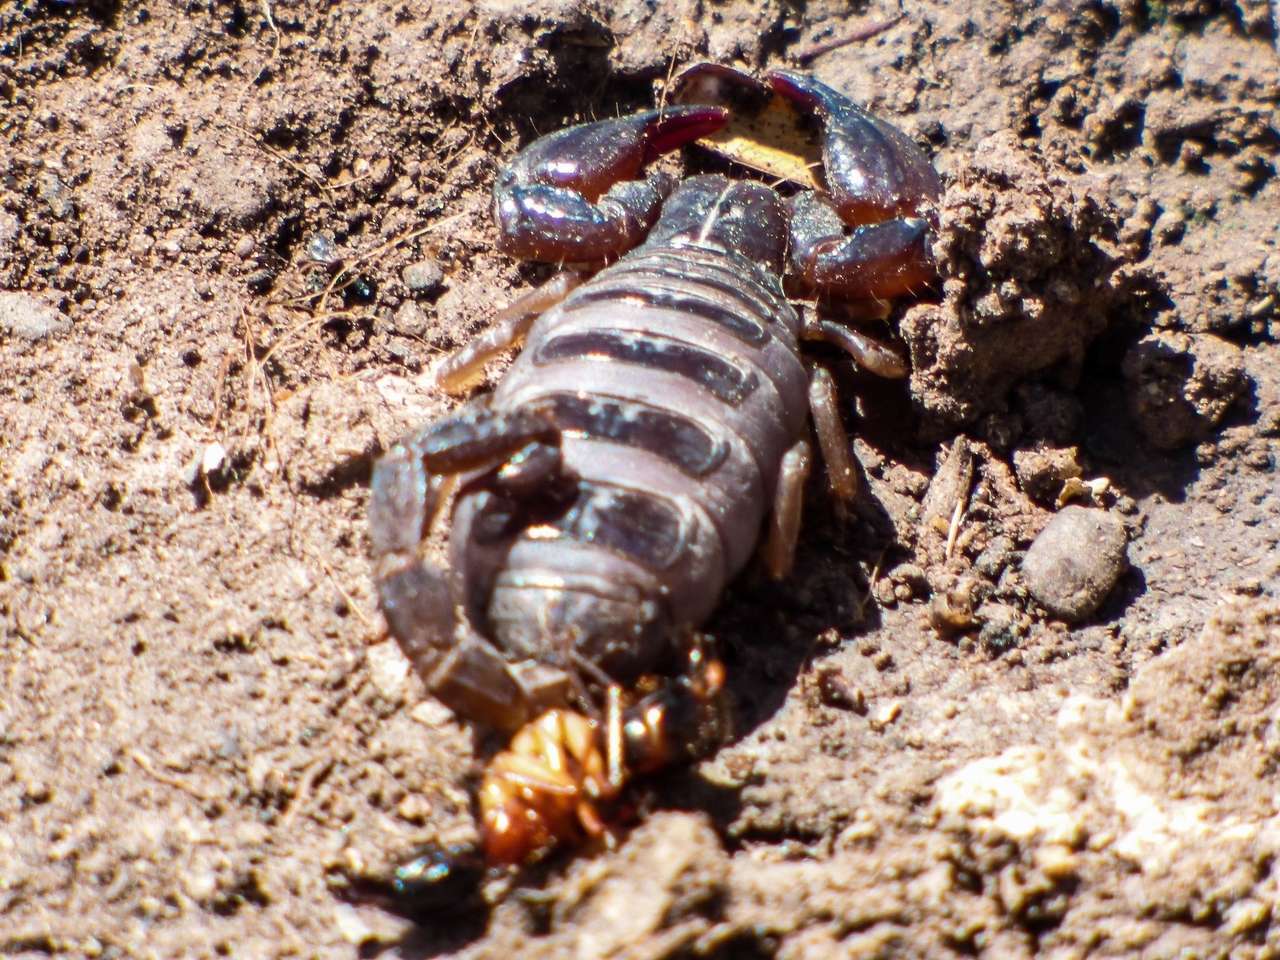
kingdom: Animalia
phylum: Arthropoda
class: Arachnida
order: Scorpiones
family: Scorpionidae
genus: Urodacus
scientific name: Urodacus manicatus
